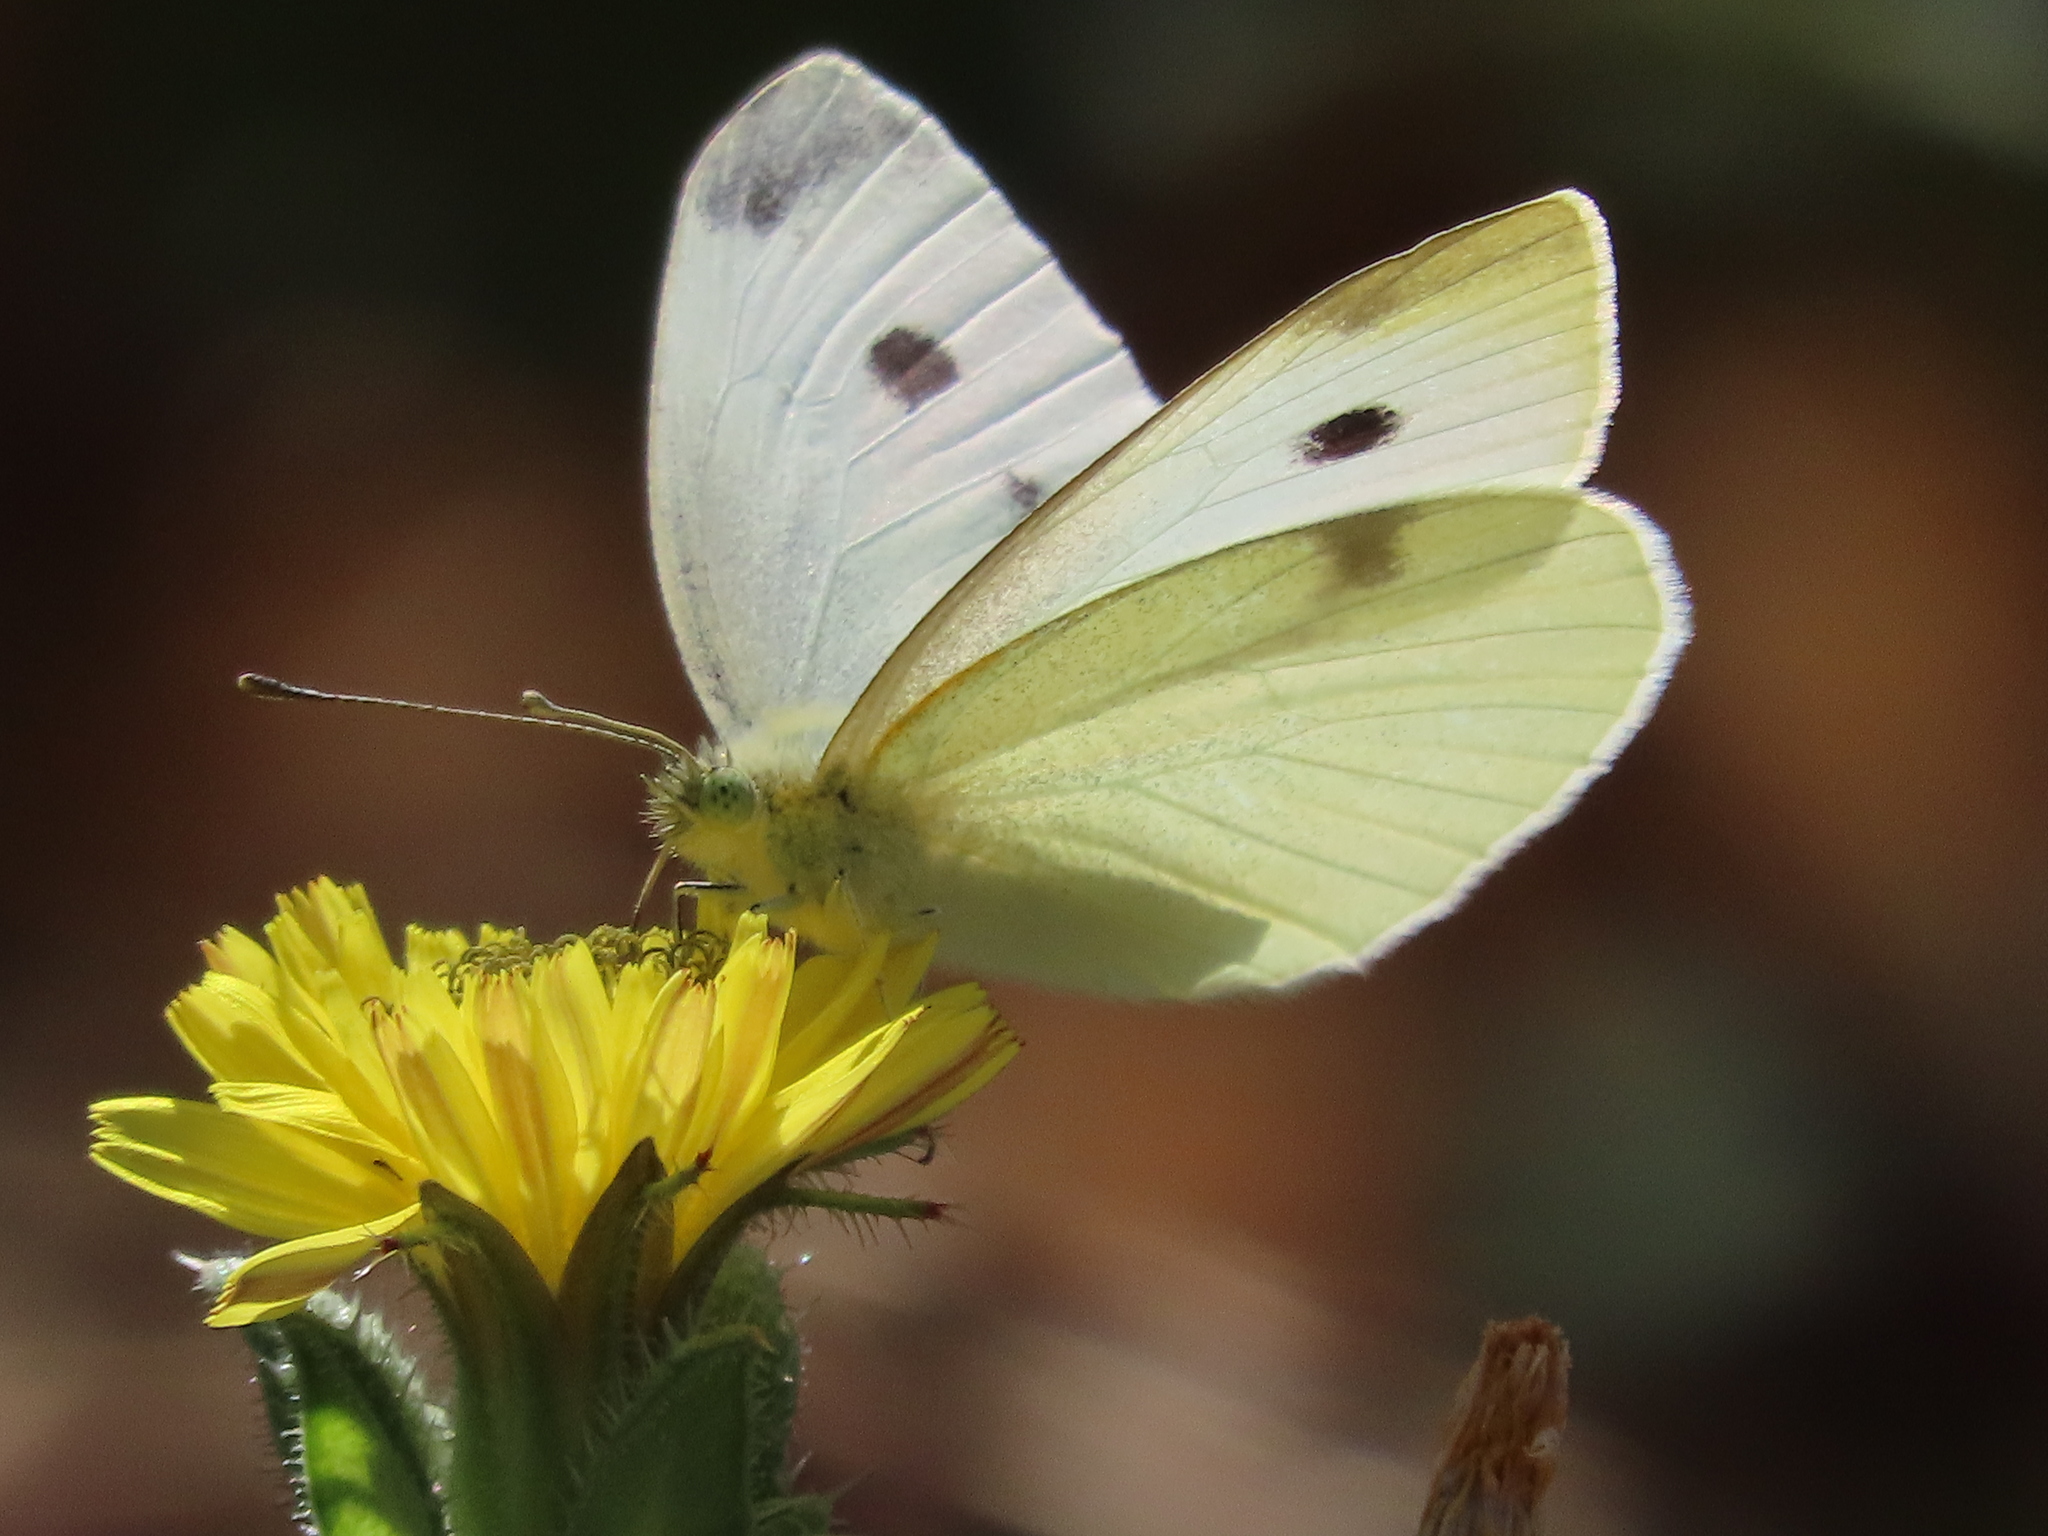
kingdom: Animalia
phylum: Arthropoda
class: Insecta
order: Lepidoptera
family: Pieridae
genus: Pieris
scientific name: Pieris rapae
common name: Small white
